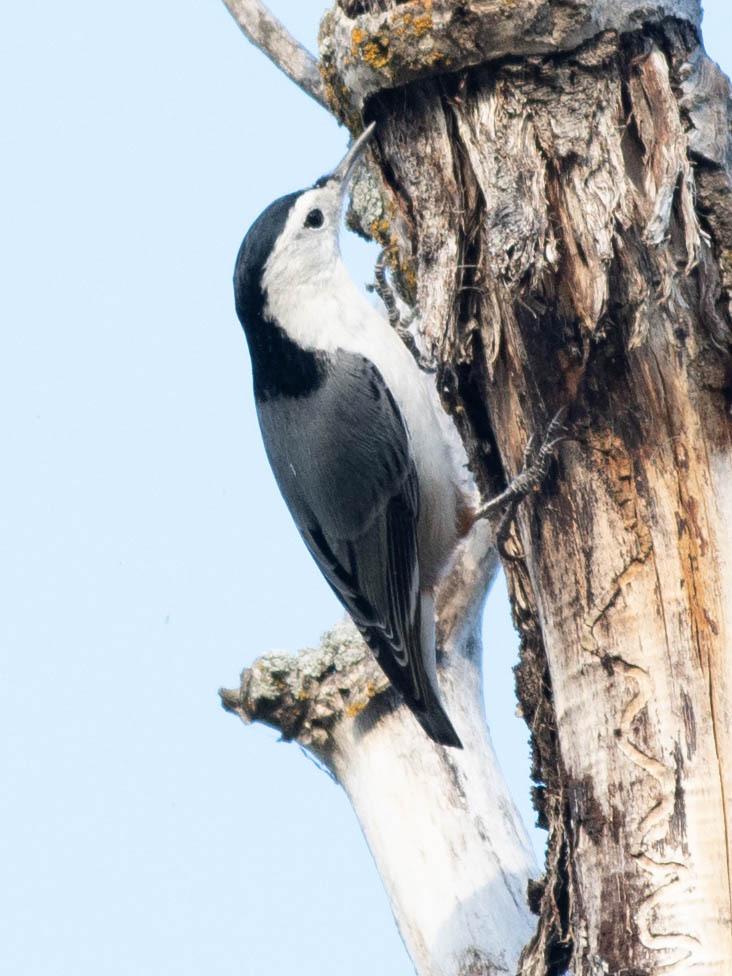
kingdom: Animalia
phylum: Chordata
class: Aves
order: Passeriformes
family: Sittidae
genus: Sitta
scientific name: Sitta carolinensis
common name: White-breasted nuthatch
